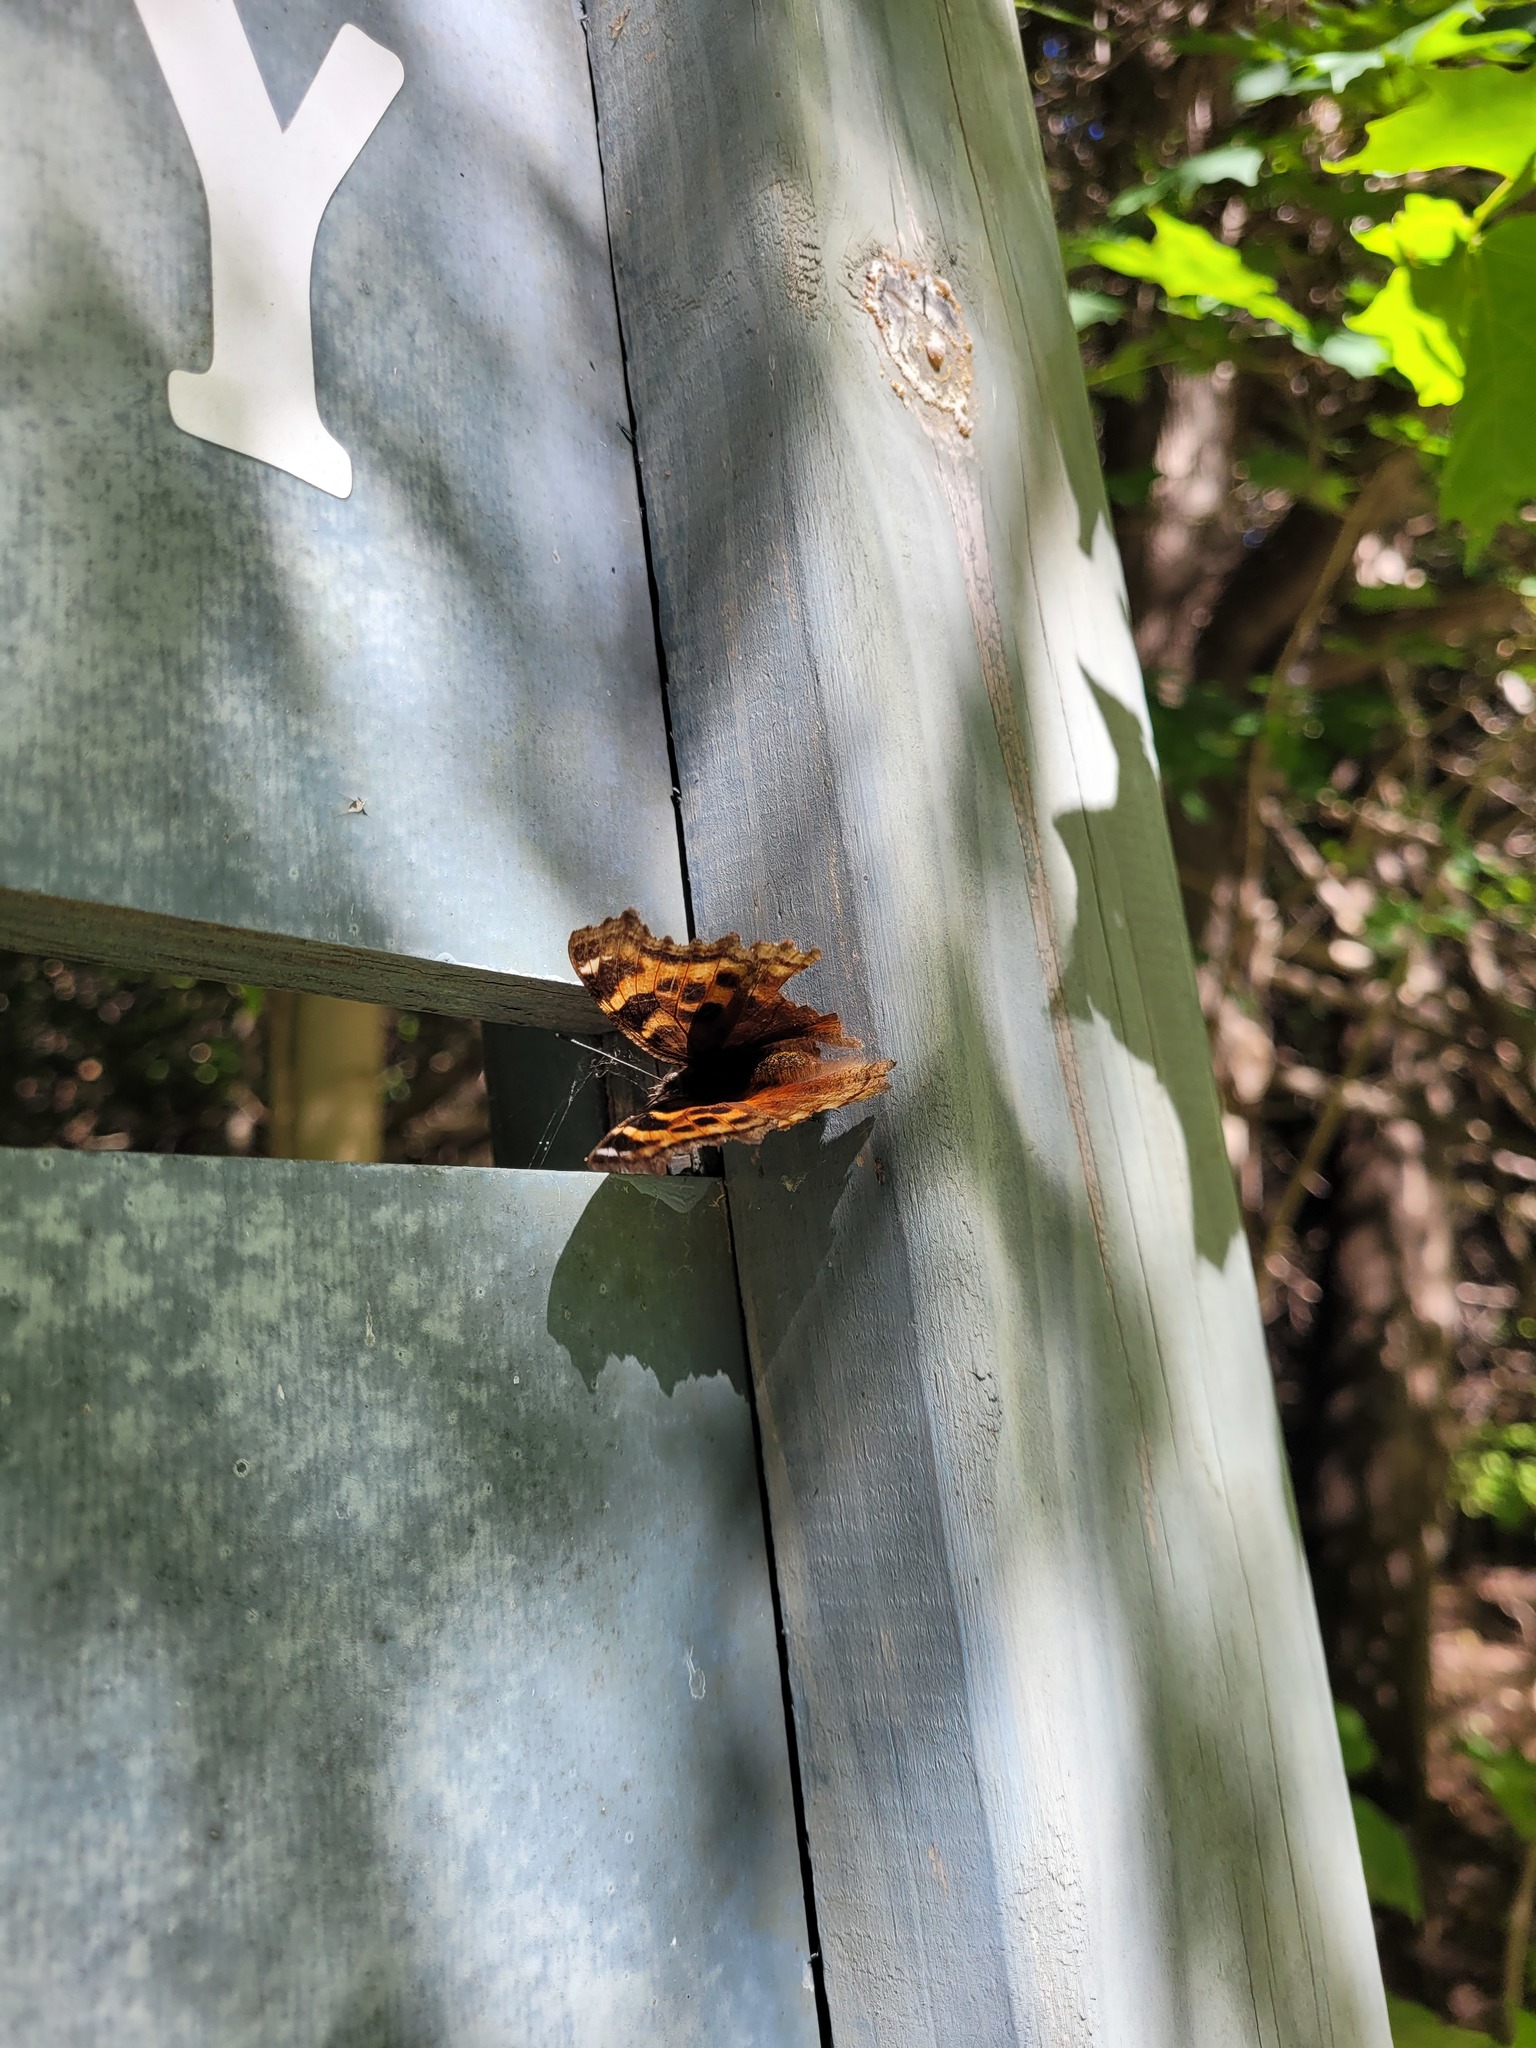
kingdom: Animalia
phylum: Arthropoda
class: Insecta
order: Lepidoptera
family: Nymphalidae
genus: Polygonia
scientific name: Polygonia vaualbum
